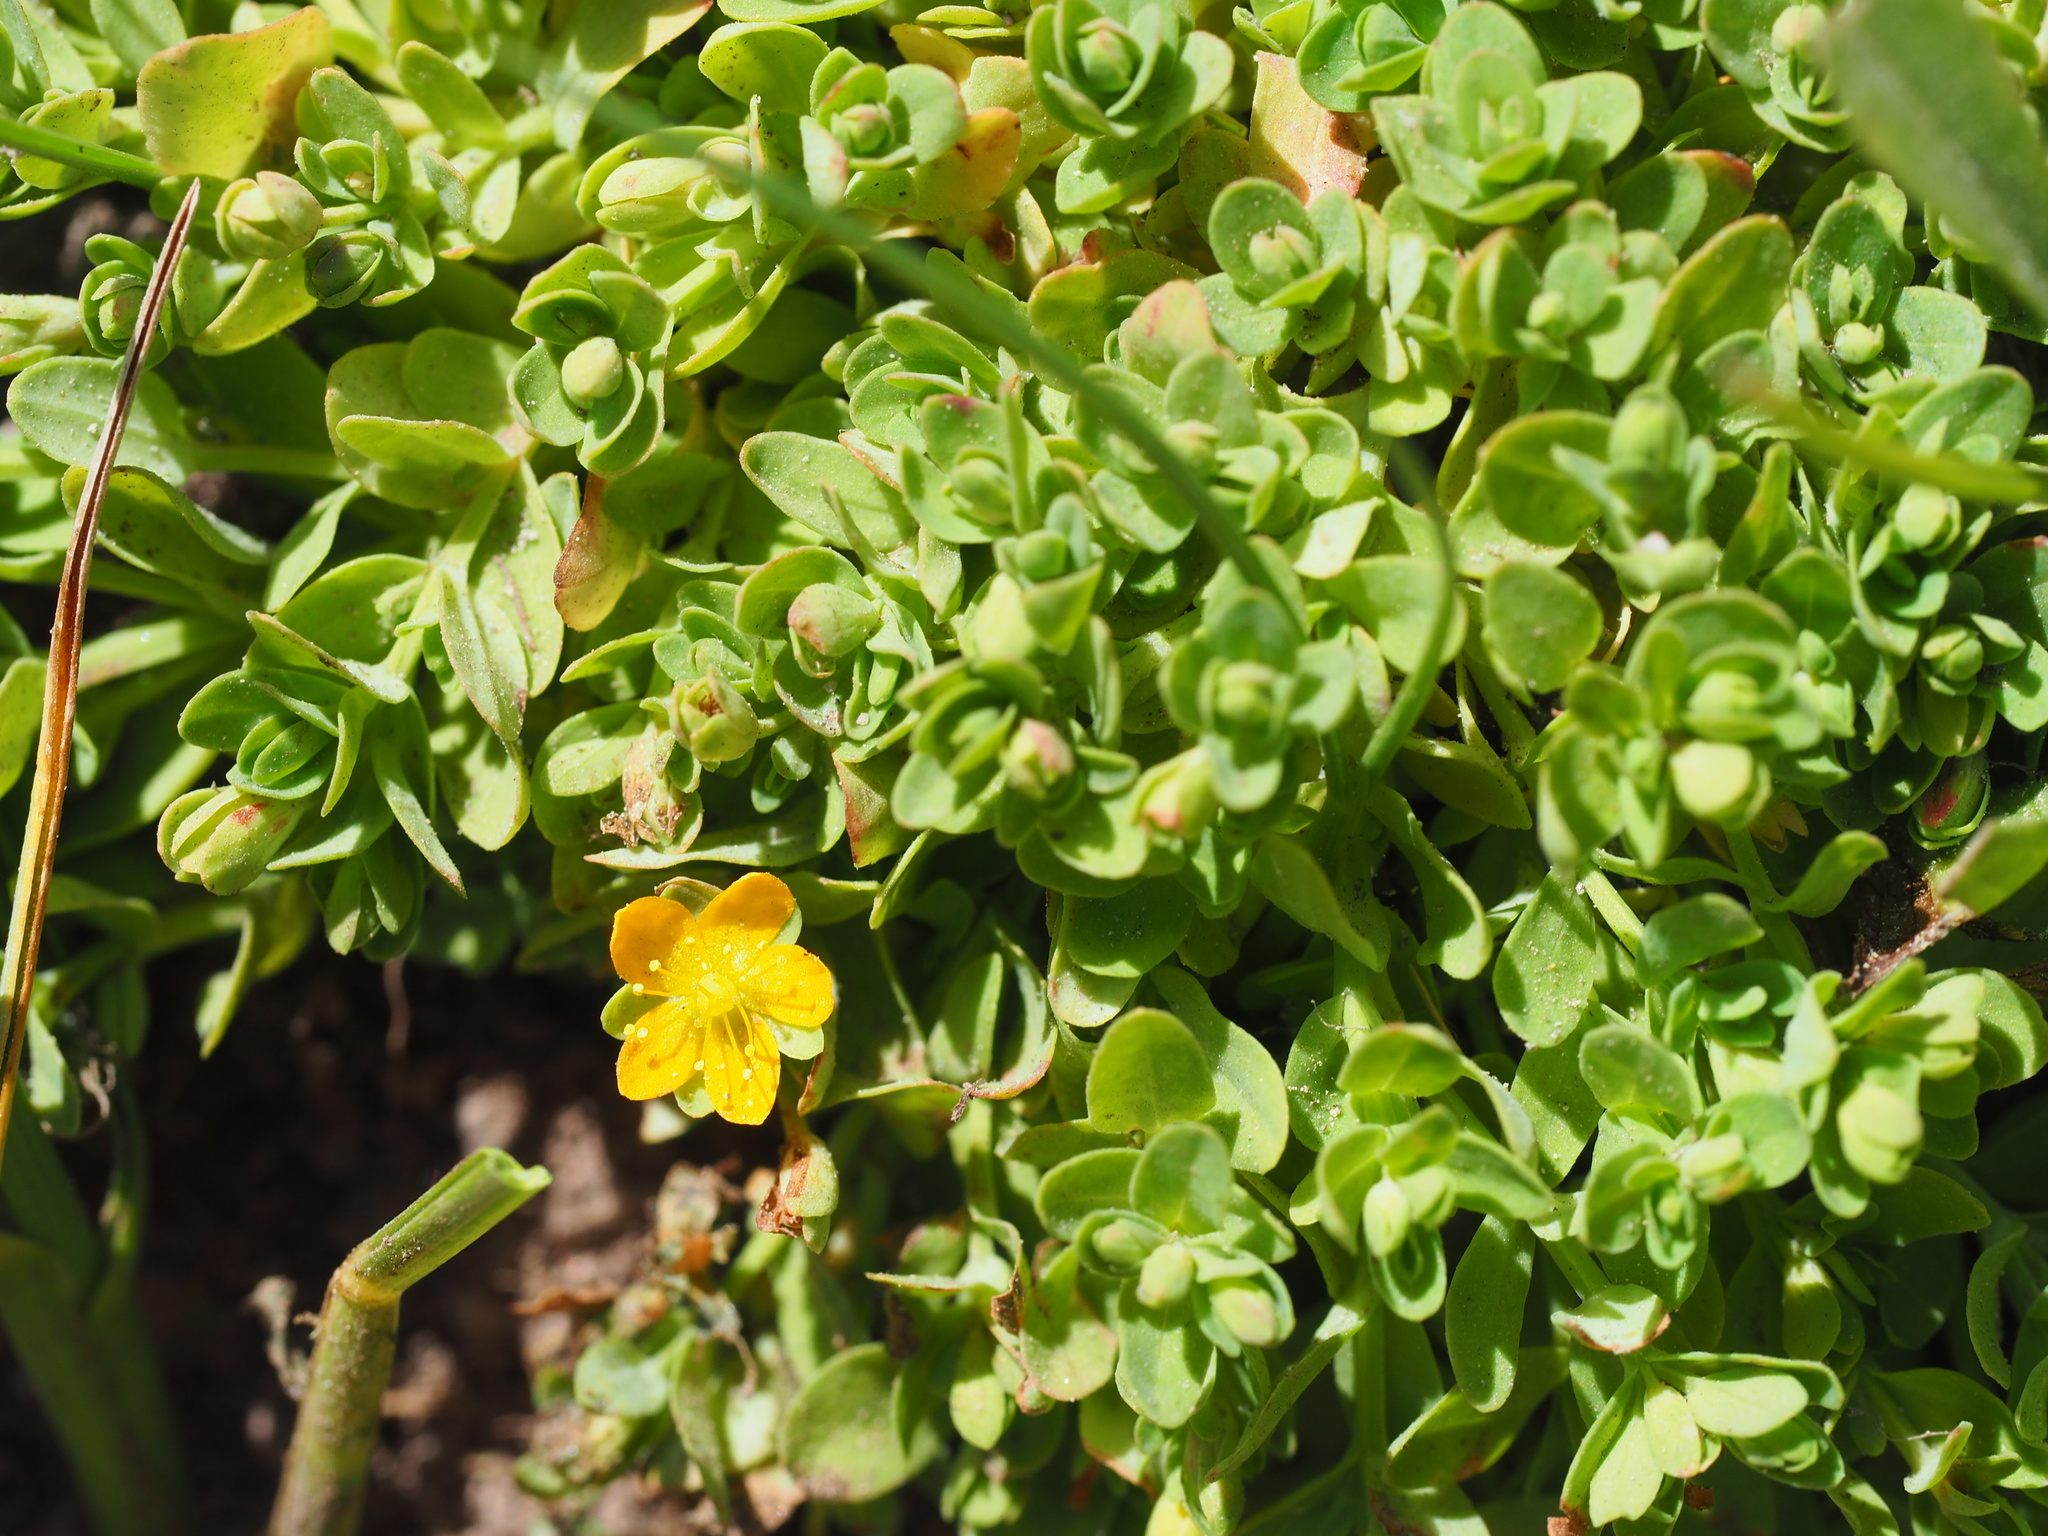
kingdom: Plantae
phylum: Tracheophyta
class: Magnoliopsida
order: Malpighiales
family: Hypericaceae
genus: Hypericum
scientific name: Hypericum anagalloides
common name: Bog st. john's-wort
